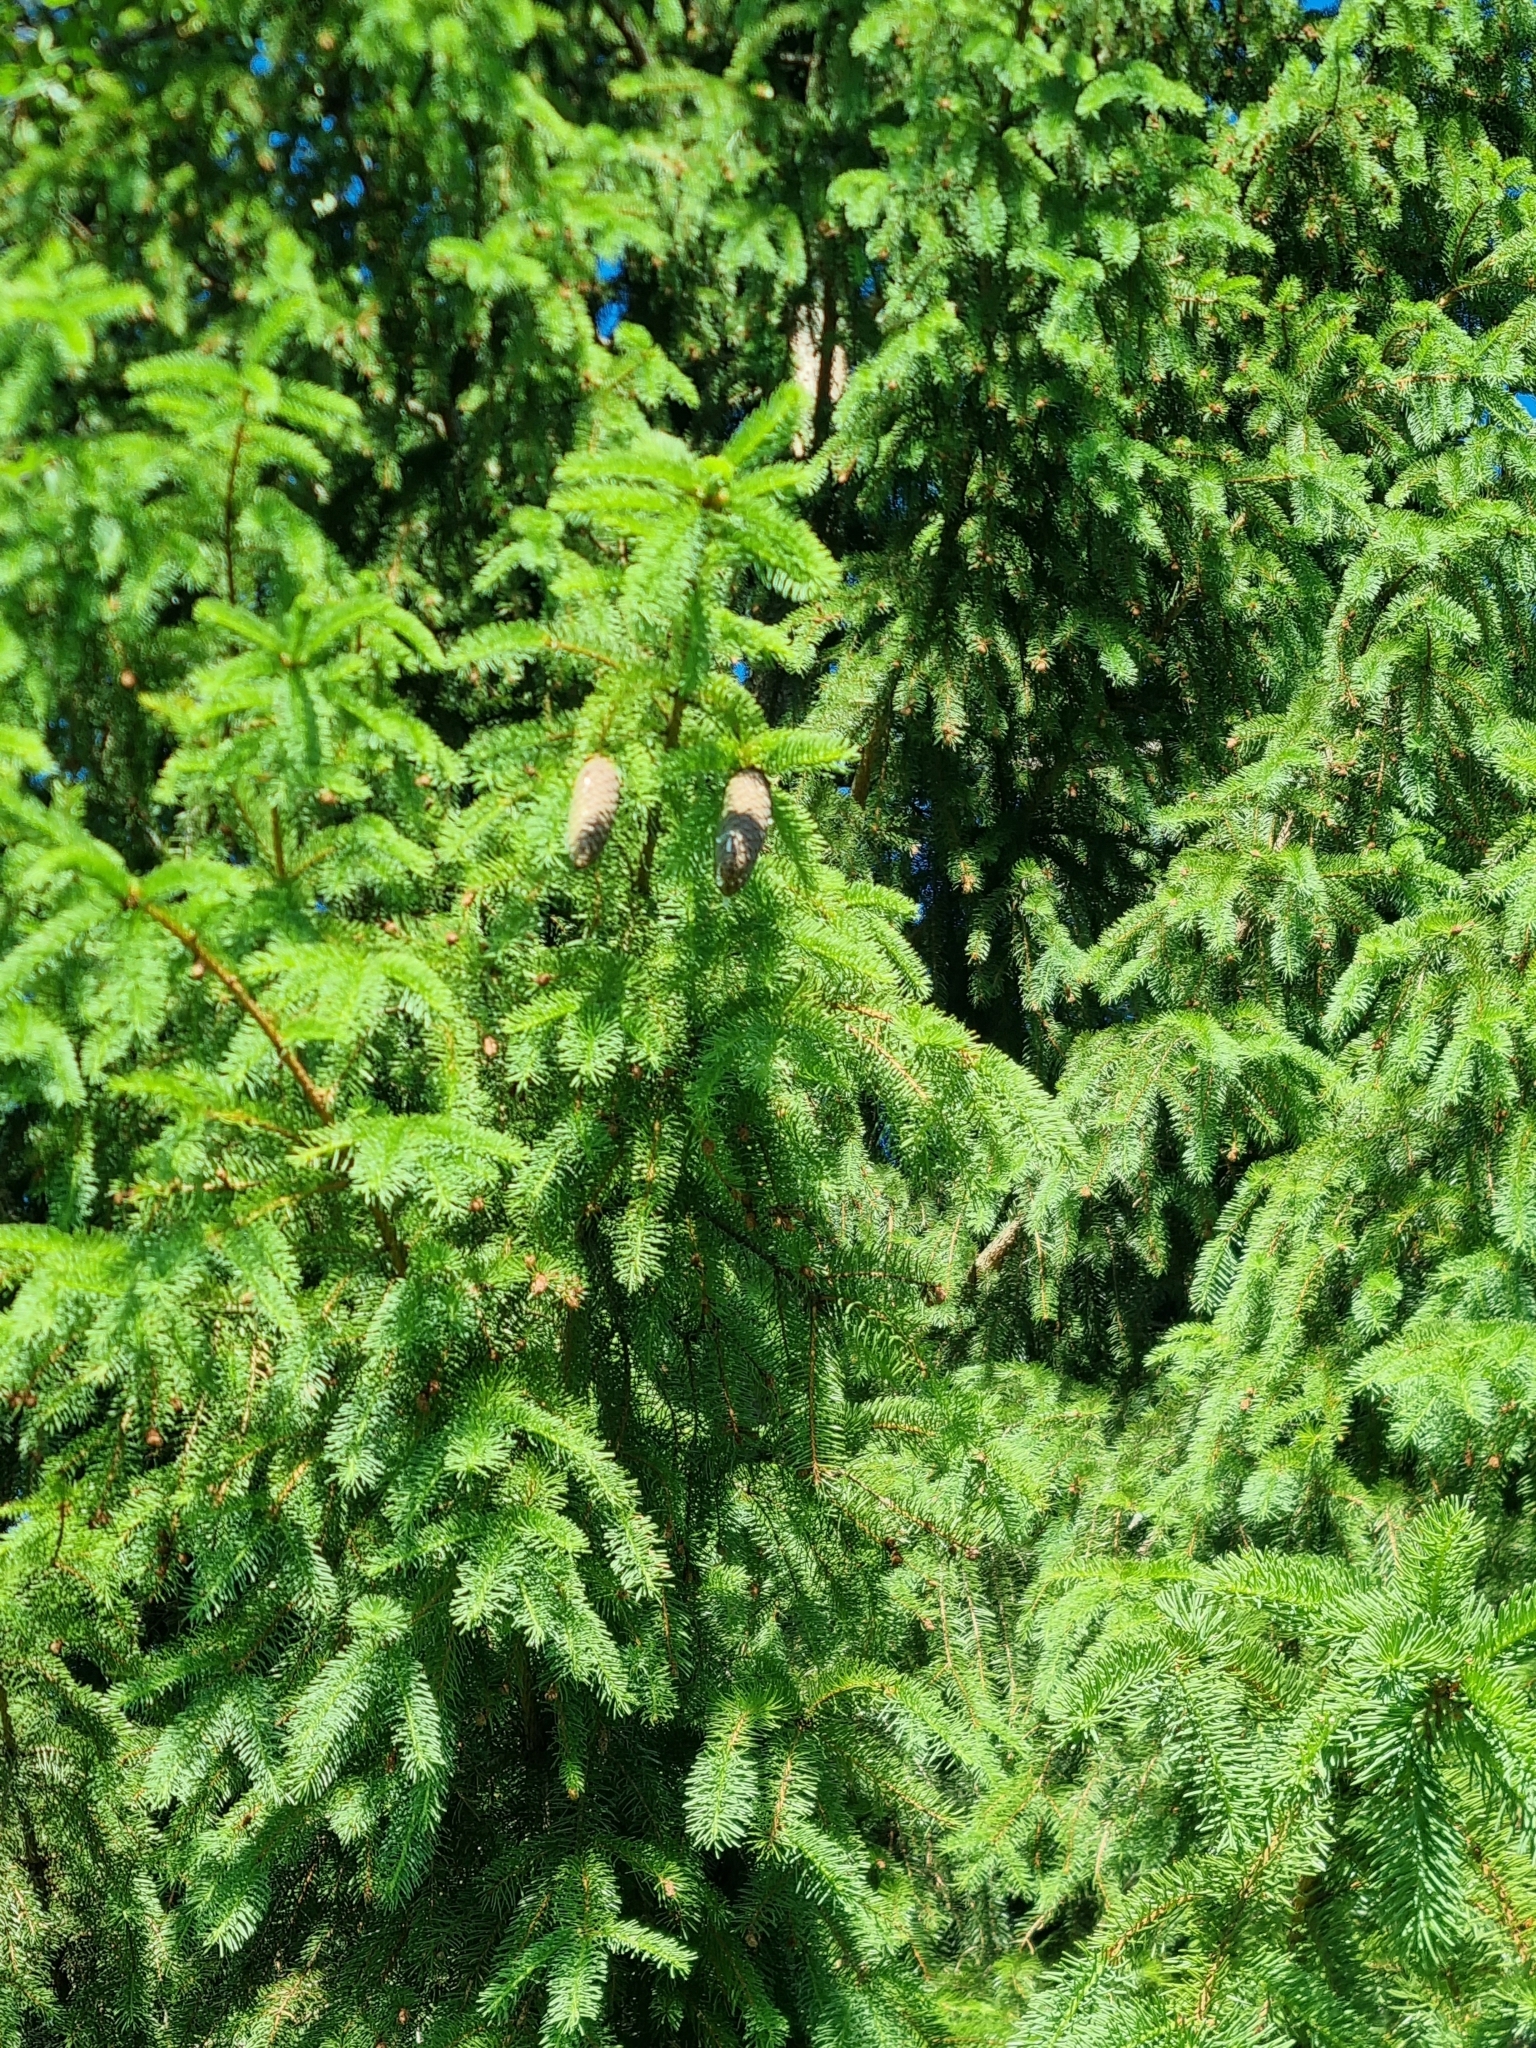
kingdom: Plantae
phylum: Tracheophyta
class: Pinopsida
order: Pinales
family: Pinaceae
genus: Picea
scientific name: Picea abies
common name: Norway spruce
